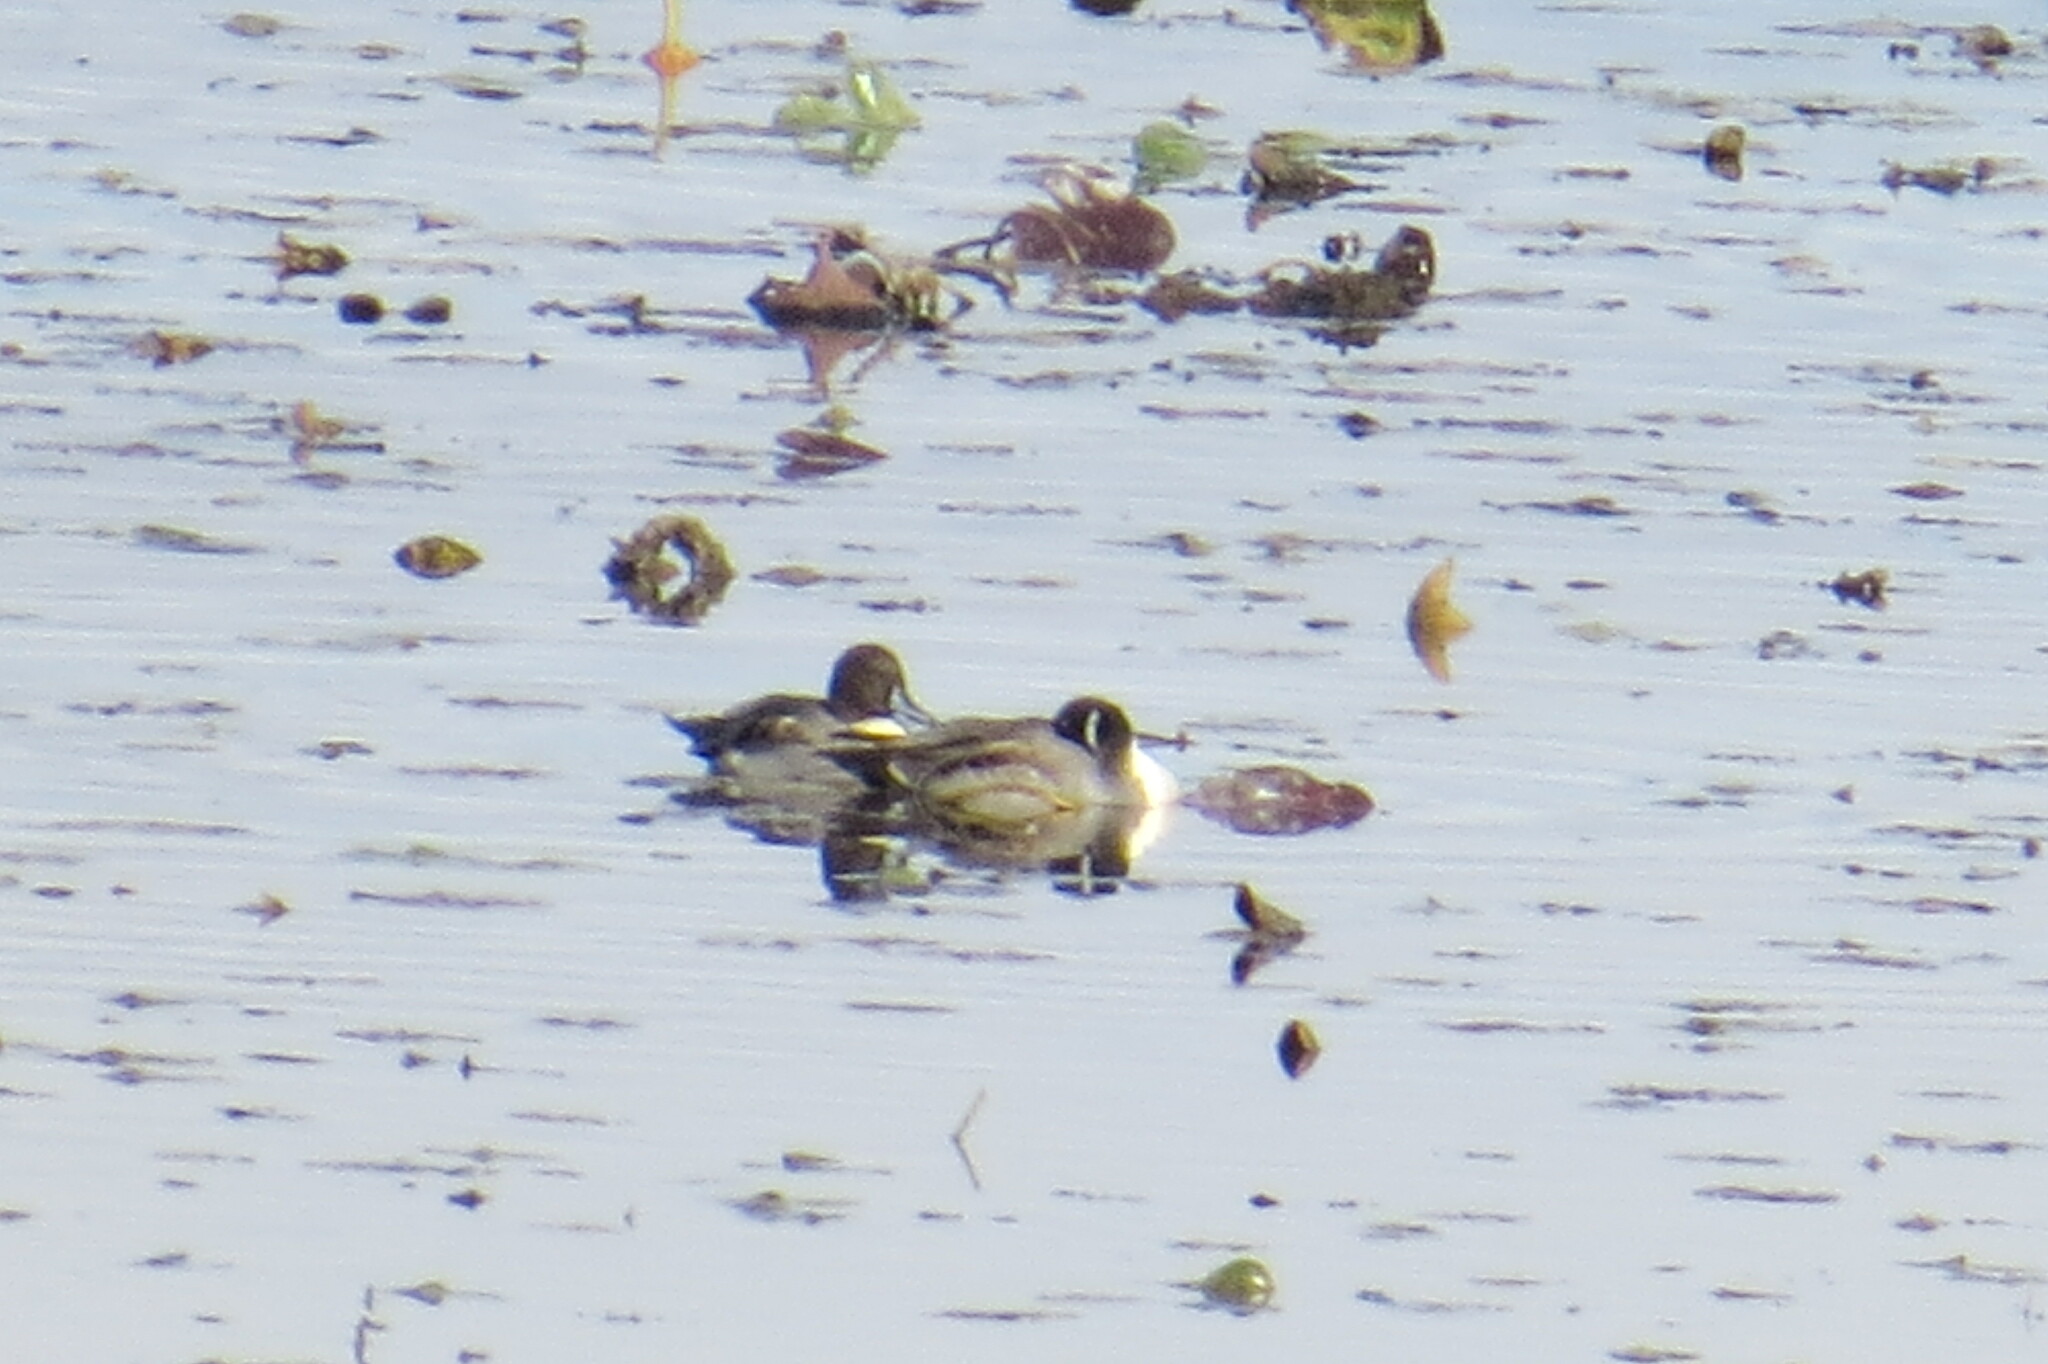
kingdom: Animalia
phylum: Chordata
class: Aves
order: Anseriformes
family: Anatidae
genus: Anas
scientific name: Anas acuta
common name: Northern pintail
